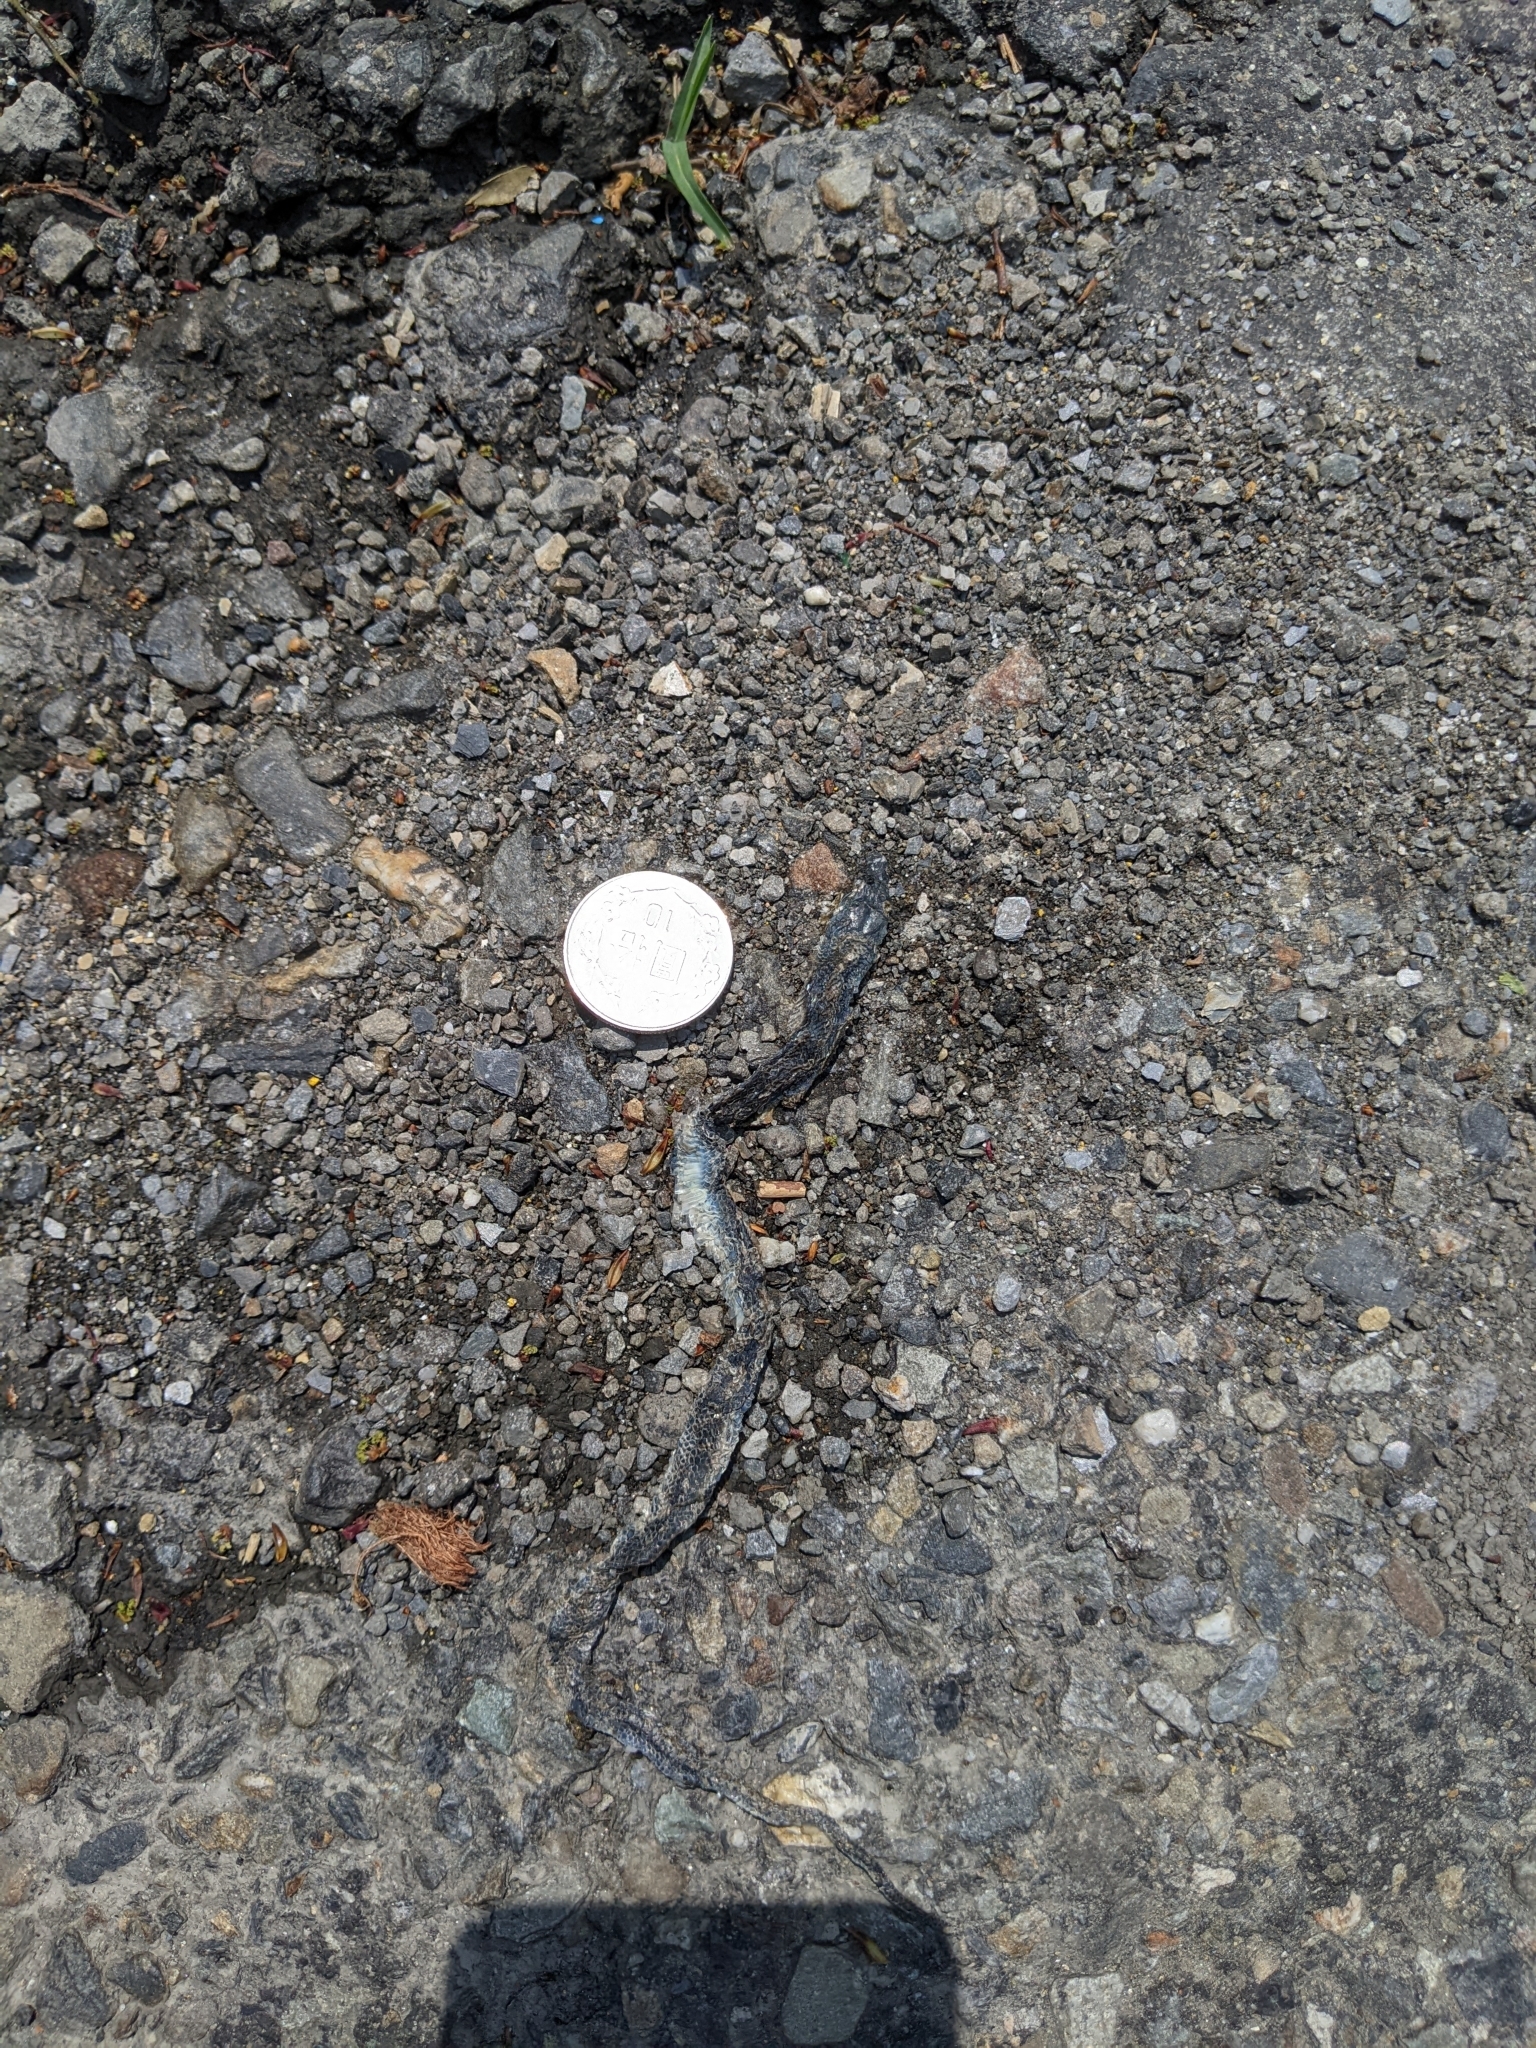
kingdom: Animalia
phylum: Chordata
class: Squamata
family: Colubridae
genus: Ptyas
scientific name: Ptyas major
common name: Chinese green snake
